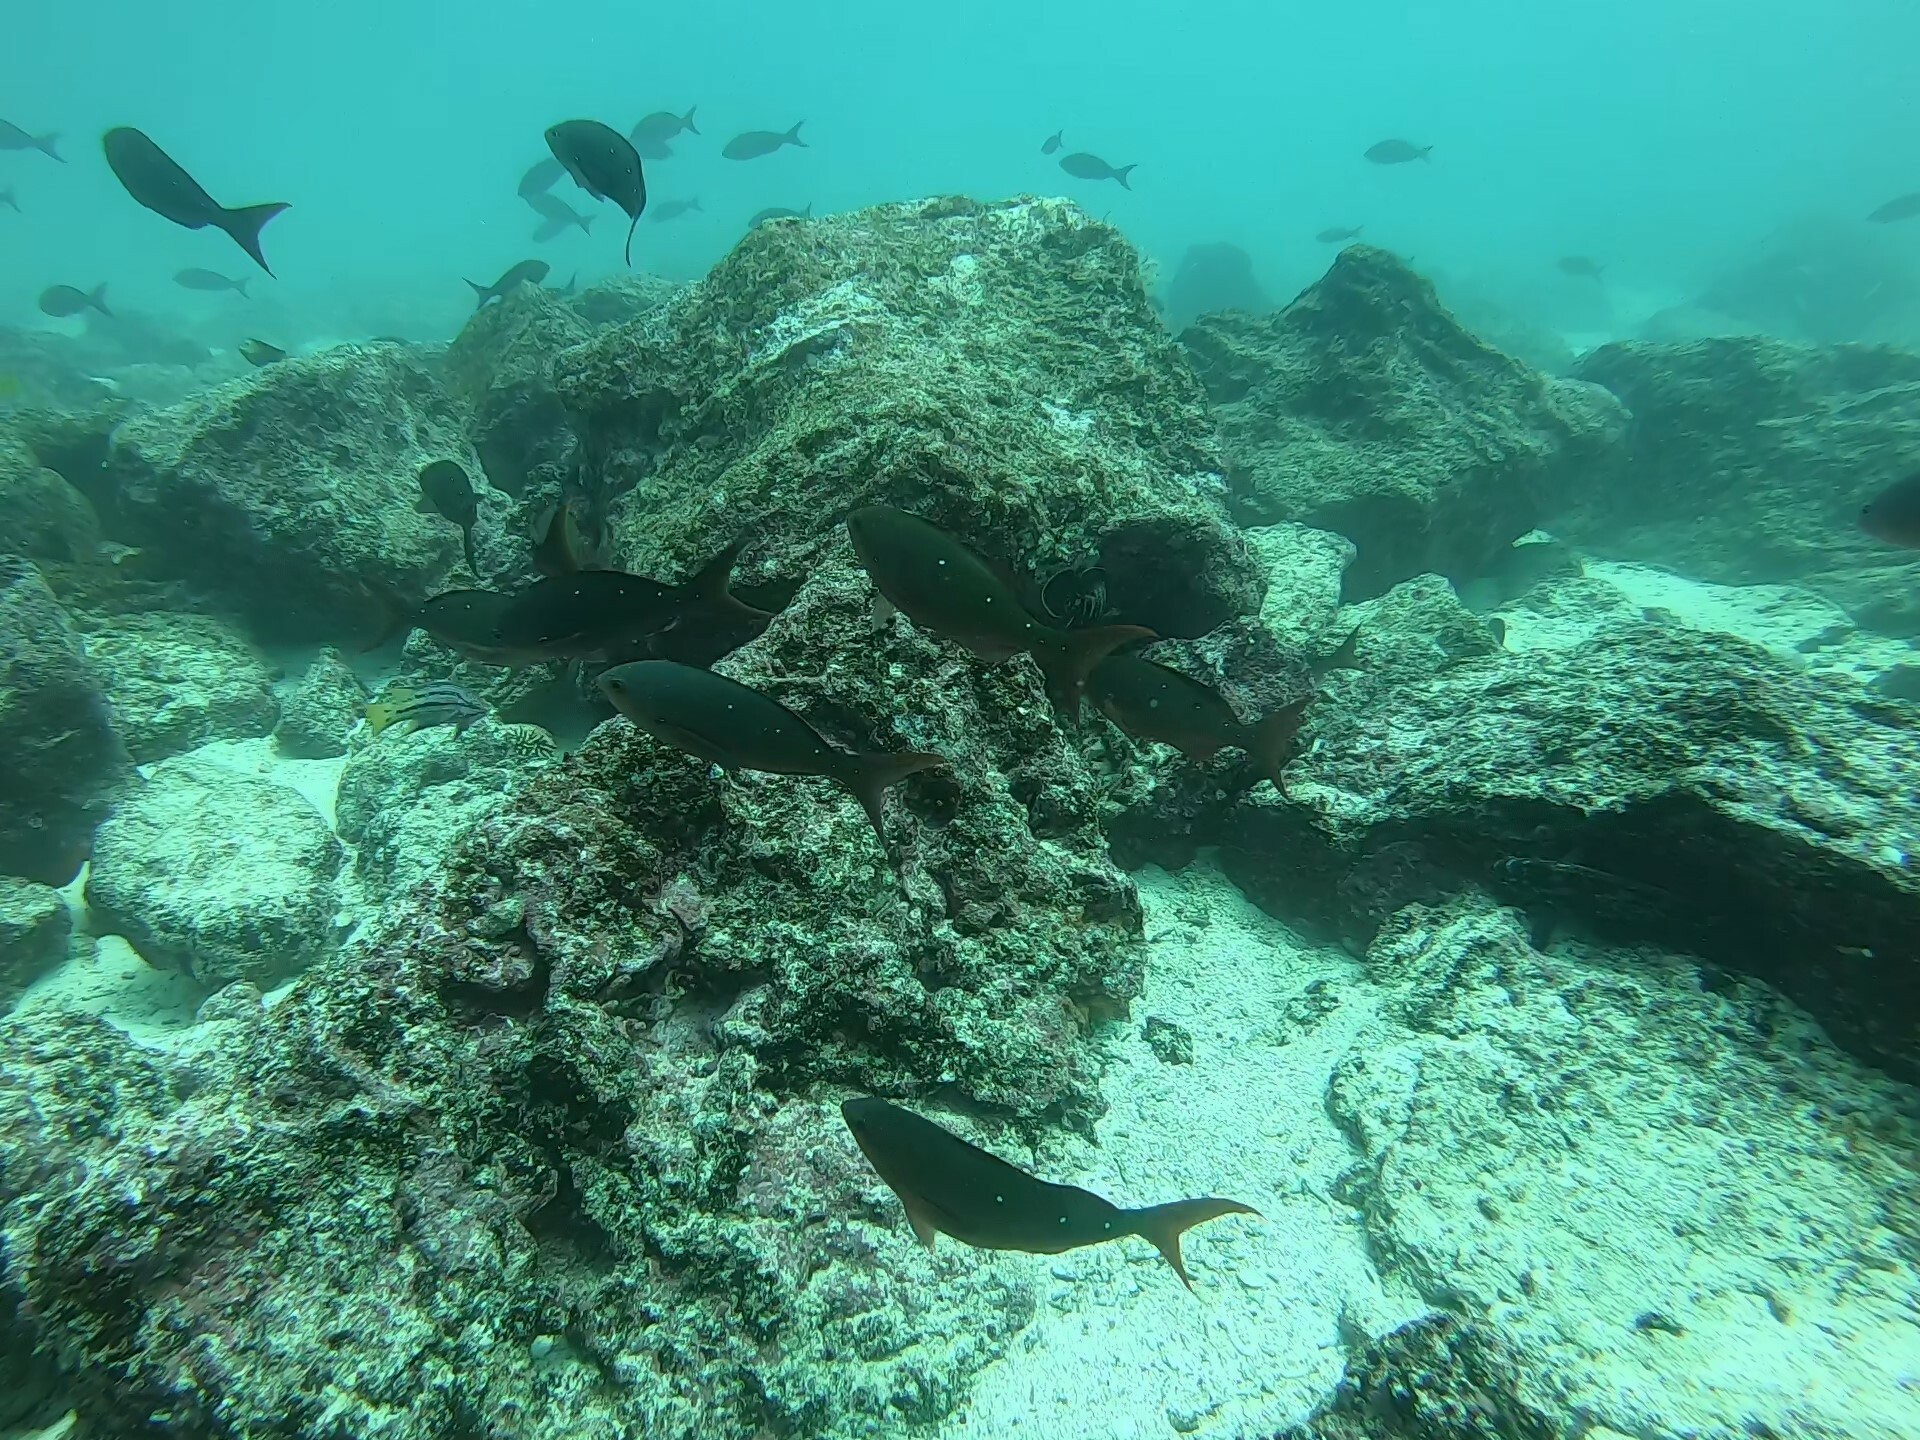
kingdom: Animalia
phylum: Chordata
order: Perciformes
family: Serranidae
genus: Paranthias
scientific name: Paranthias colonus
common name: Pacific creole-fish
